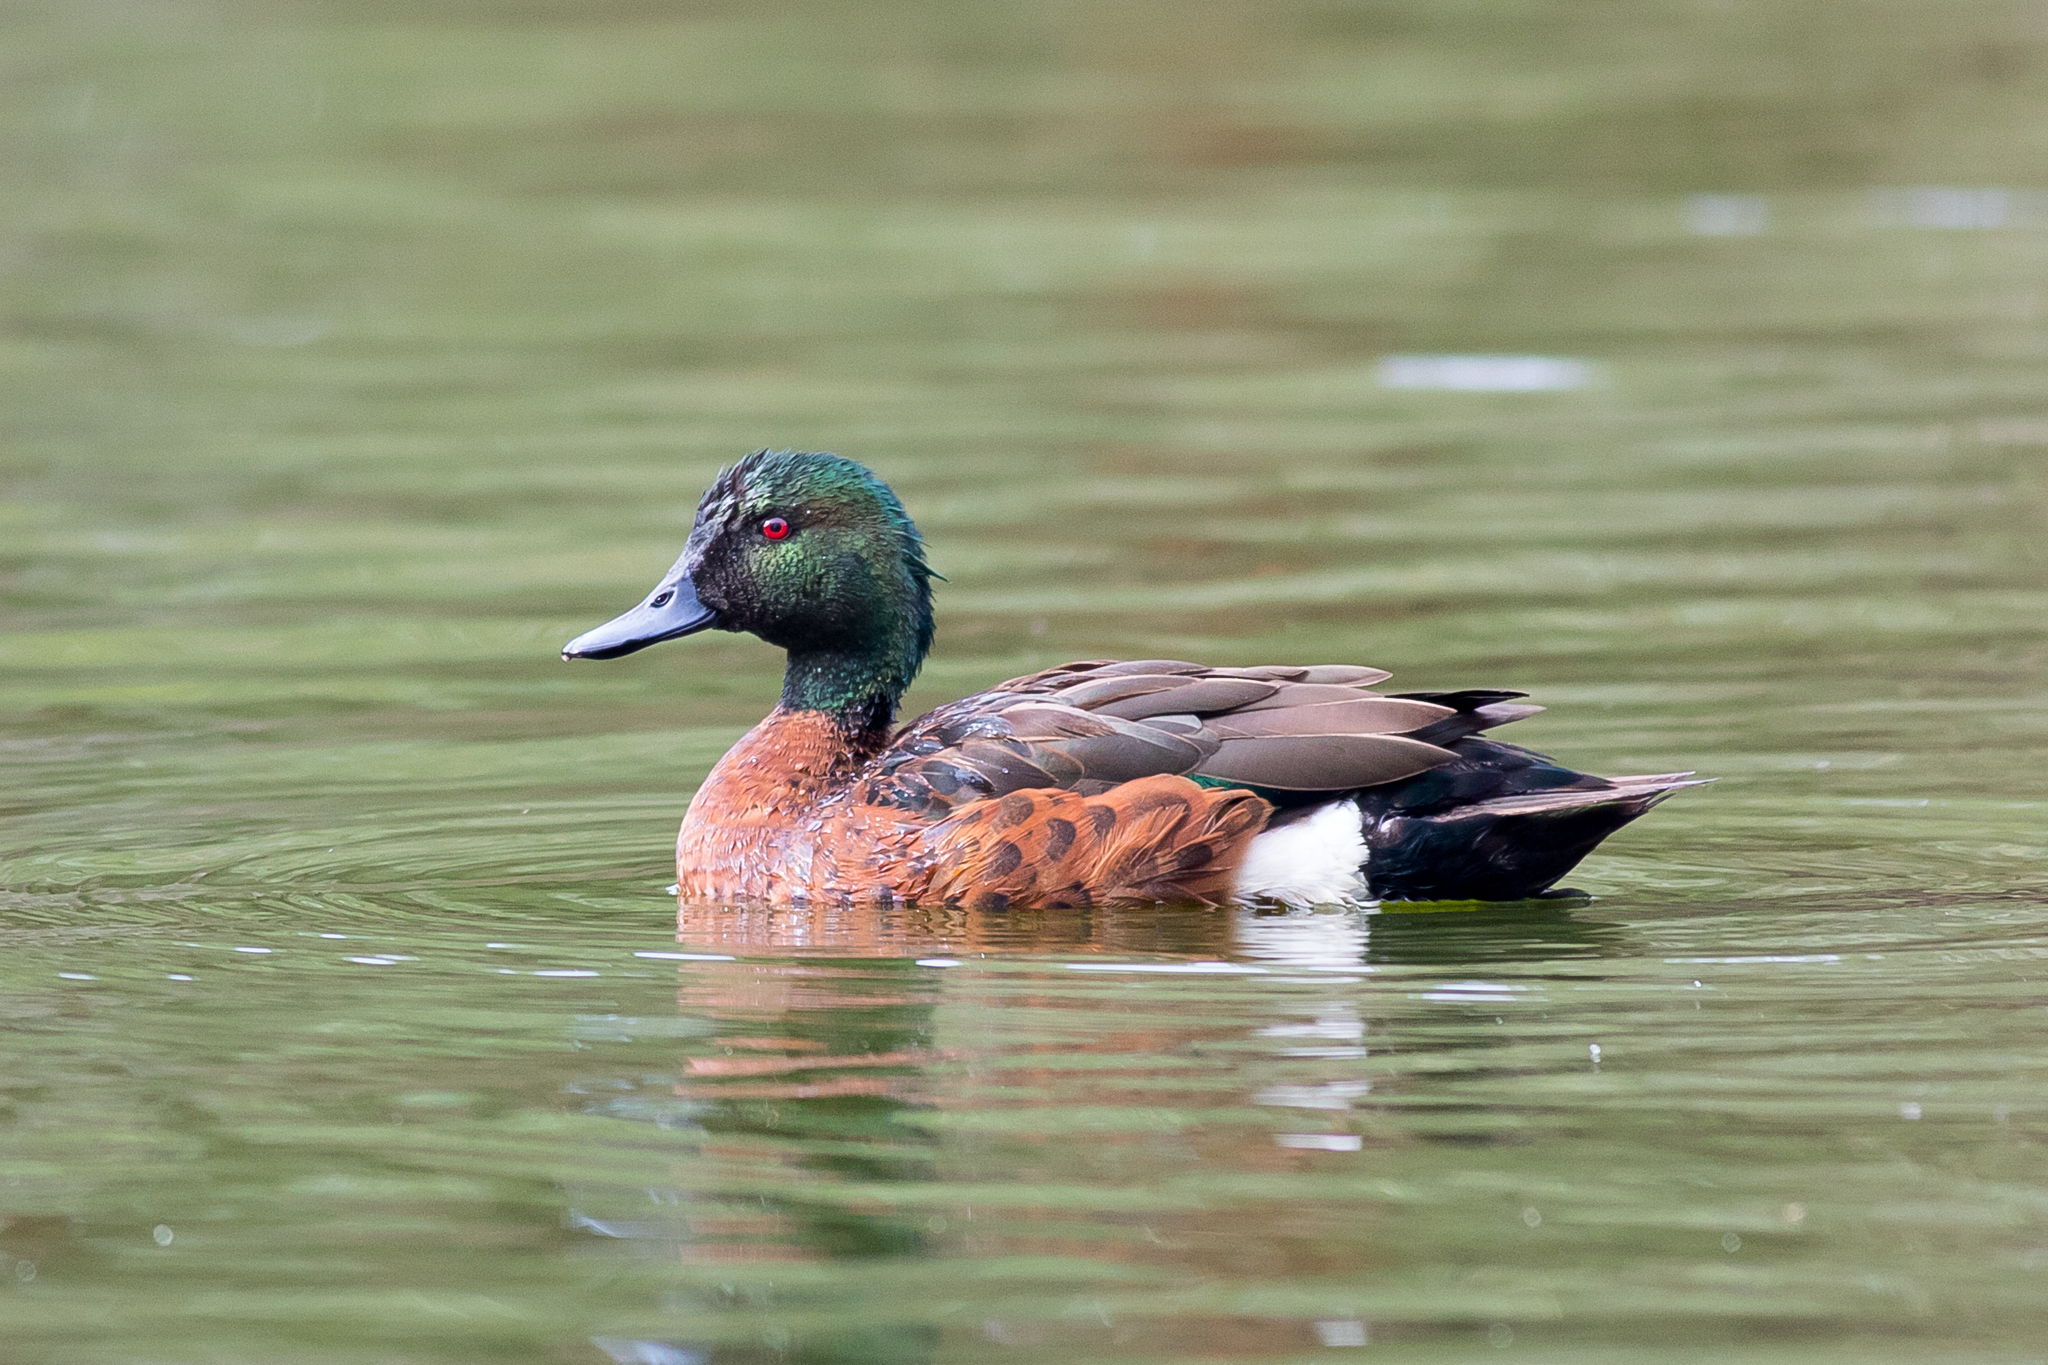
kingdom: Animalia
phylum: Chordata
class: Aves
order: Anseriformes
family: Anatidae
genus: Anas
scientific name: Anas castanea
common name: Chestnut teal
